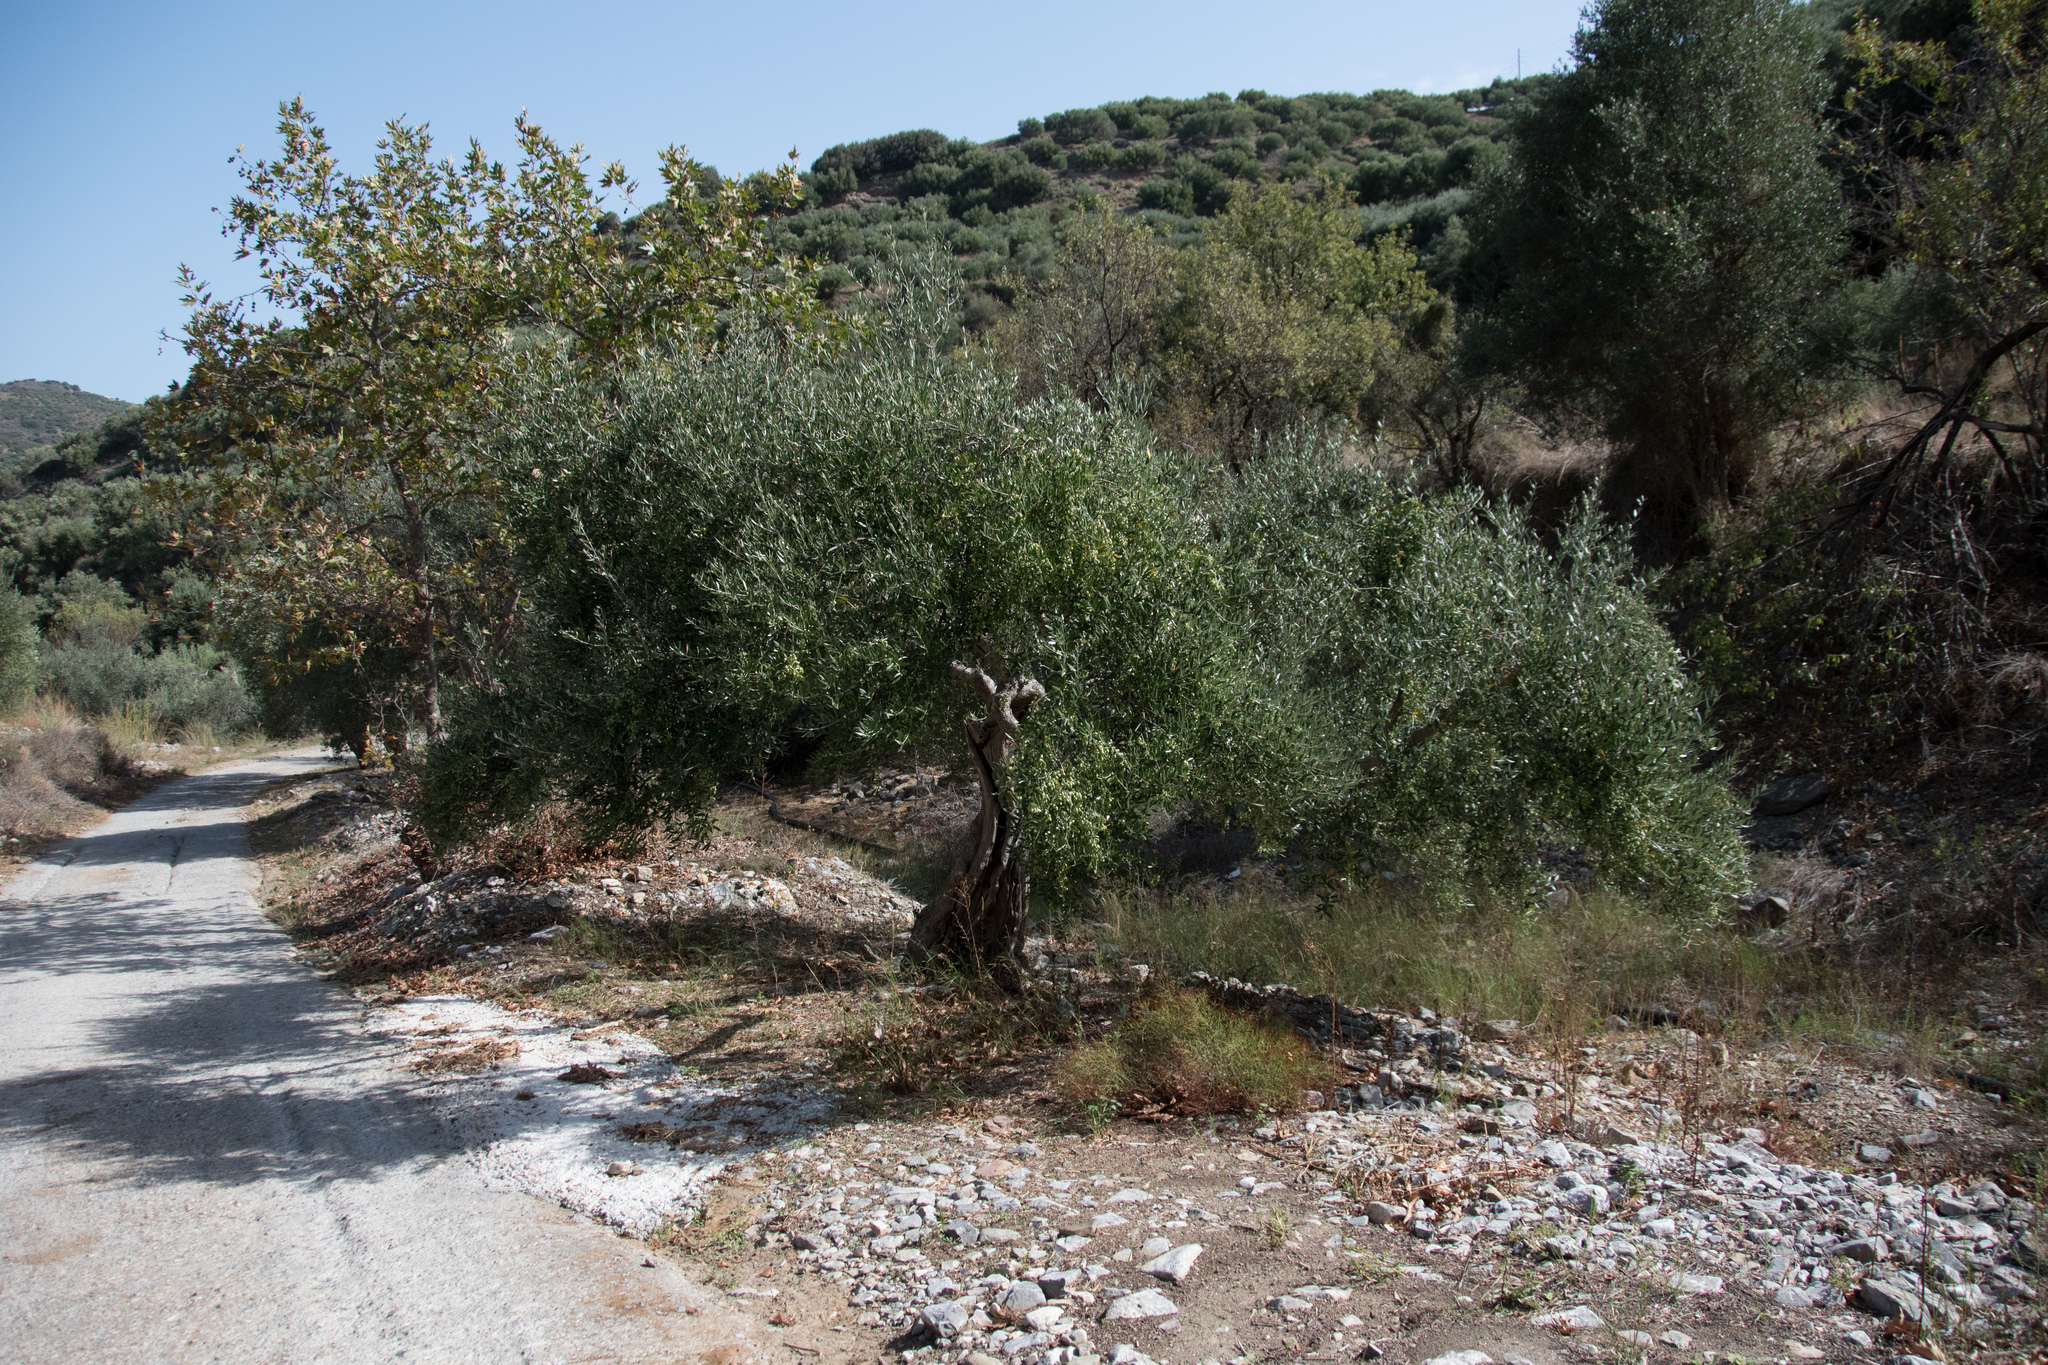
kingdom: Plantae
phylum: Tracheophyta
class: Magnoliopsida
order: Lamiales
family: Oleaceae
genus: Olea
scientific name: Olea europaea
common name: Olive
